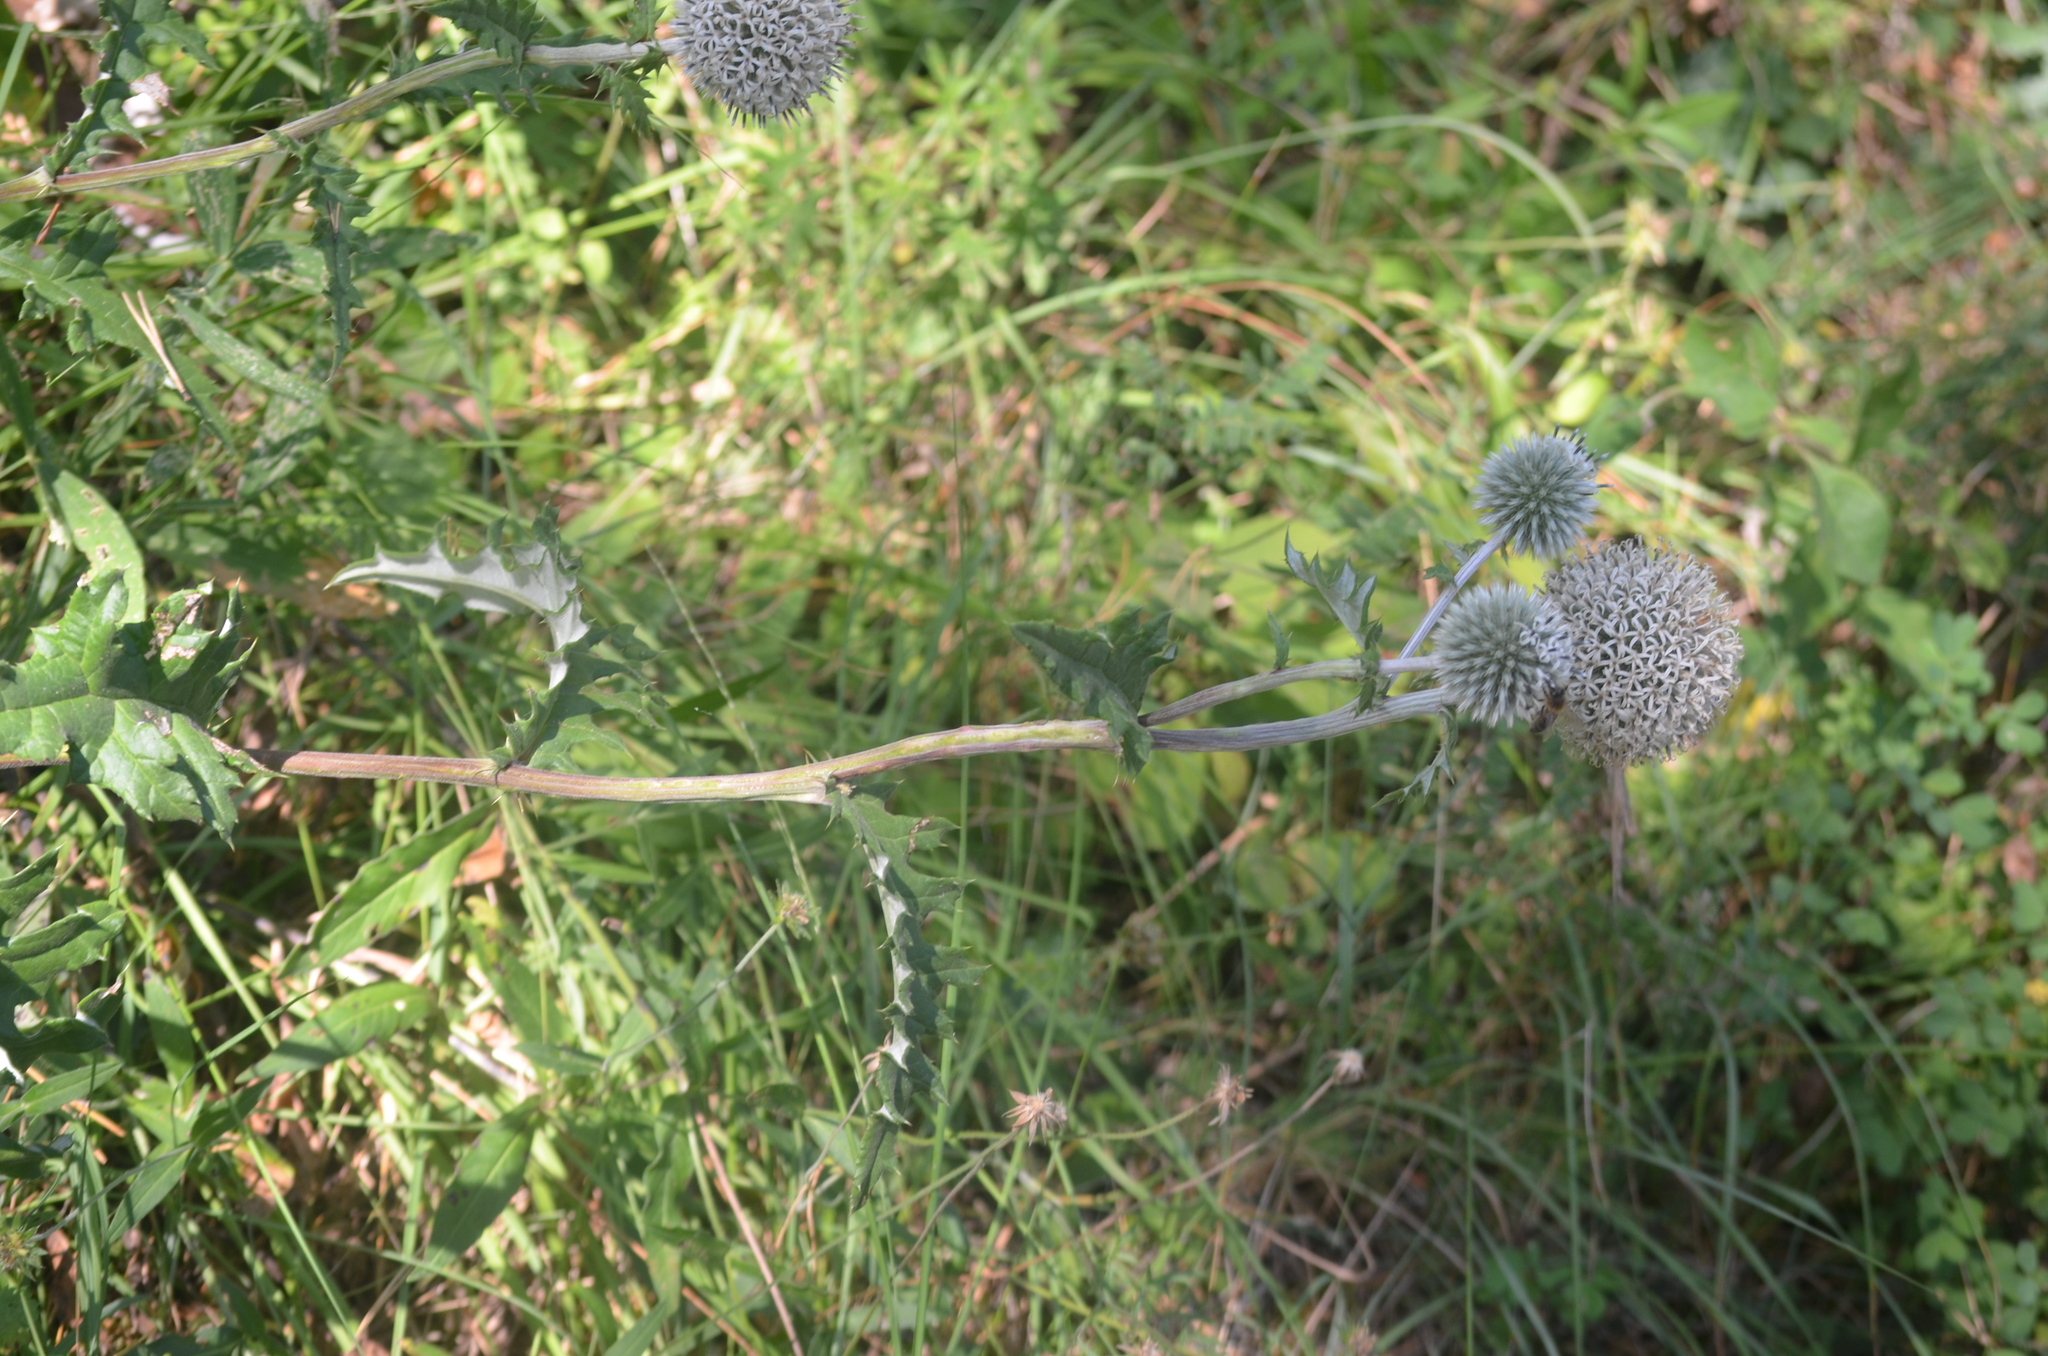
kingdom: Plantae
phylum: Tracheophyta
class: Magnoliopsida
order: Asterales
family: Asteraceae
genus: Echinops
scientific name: Echinops sphaerocephalus
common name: Glandular globe-thistle
